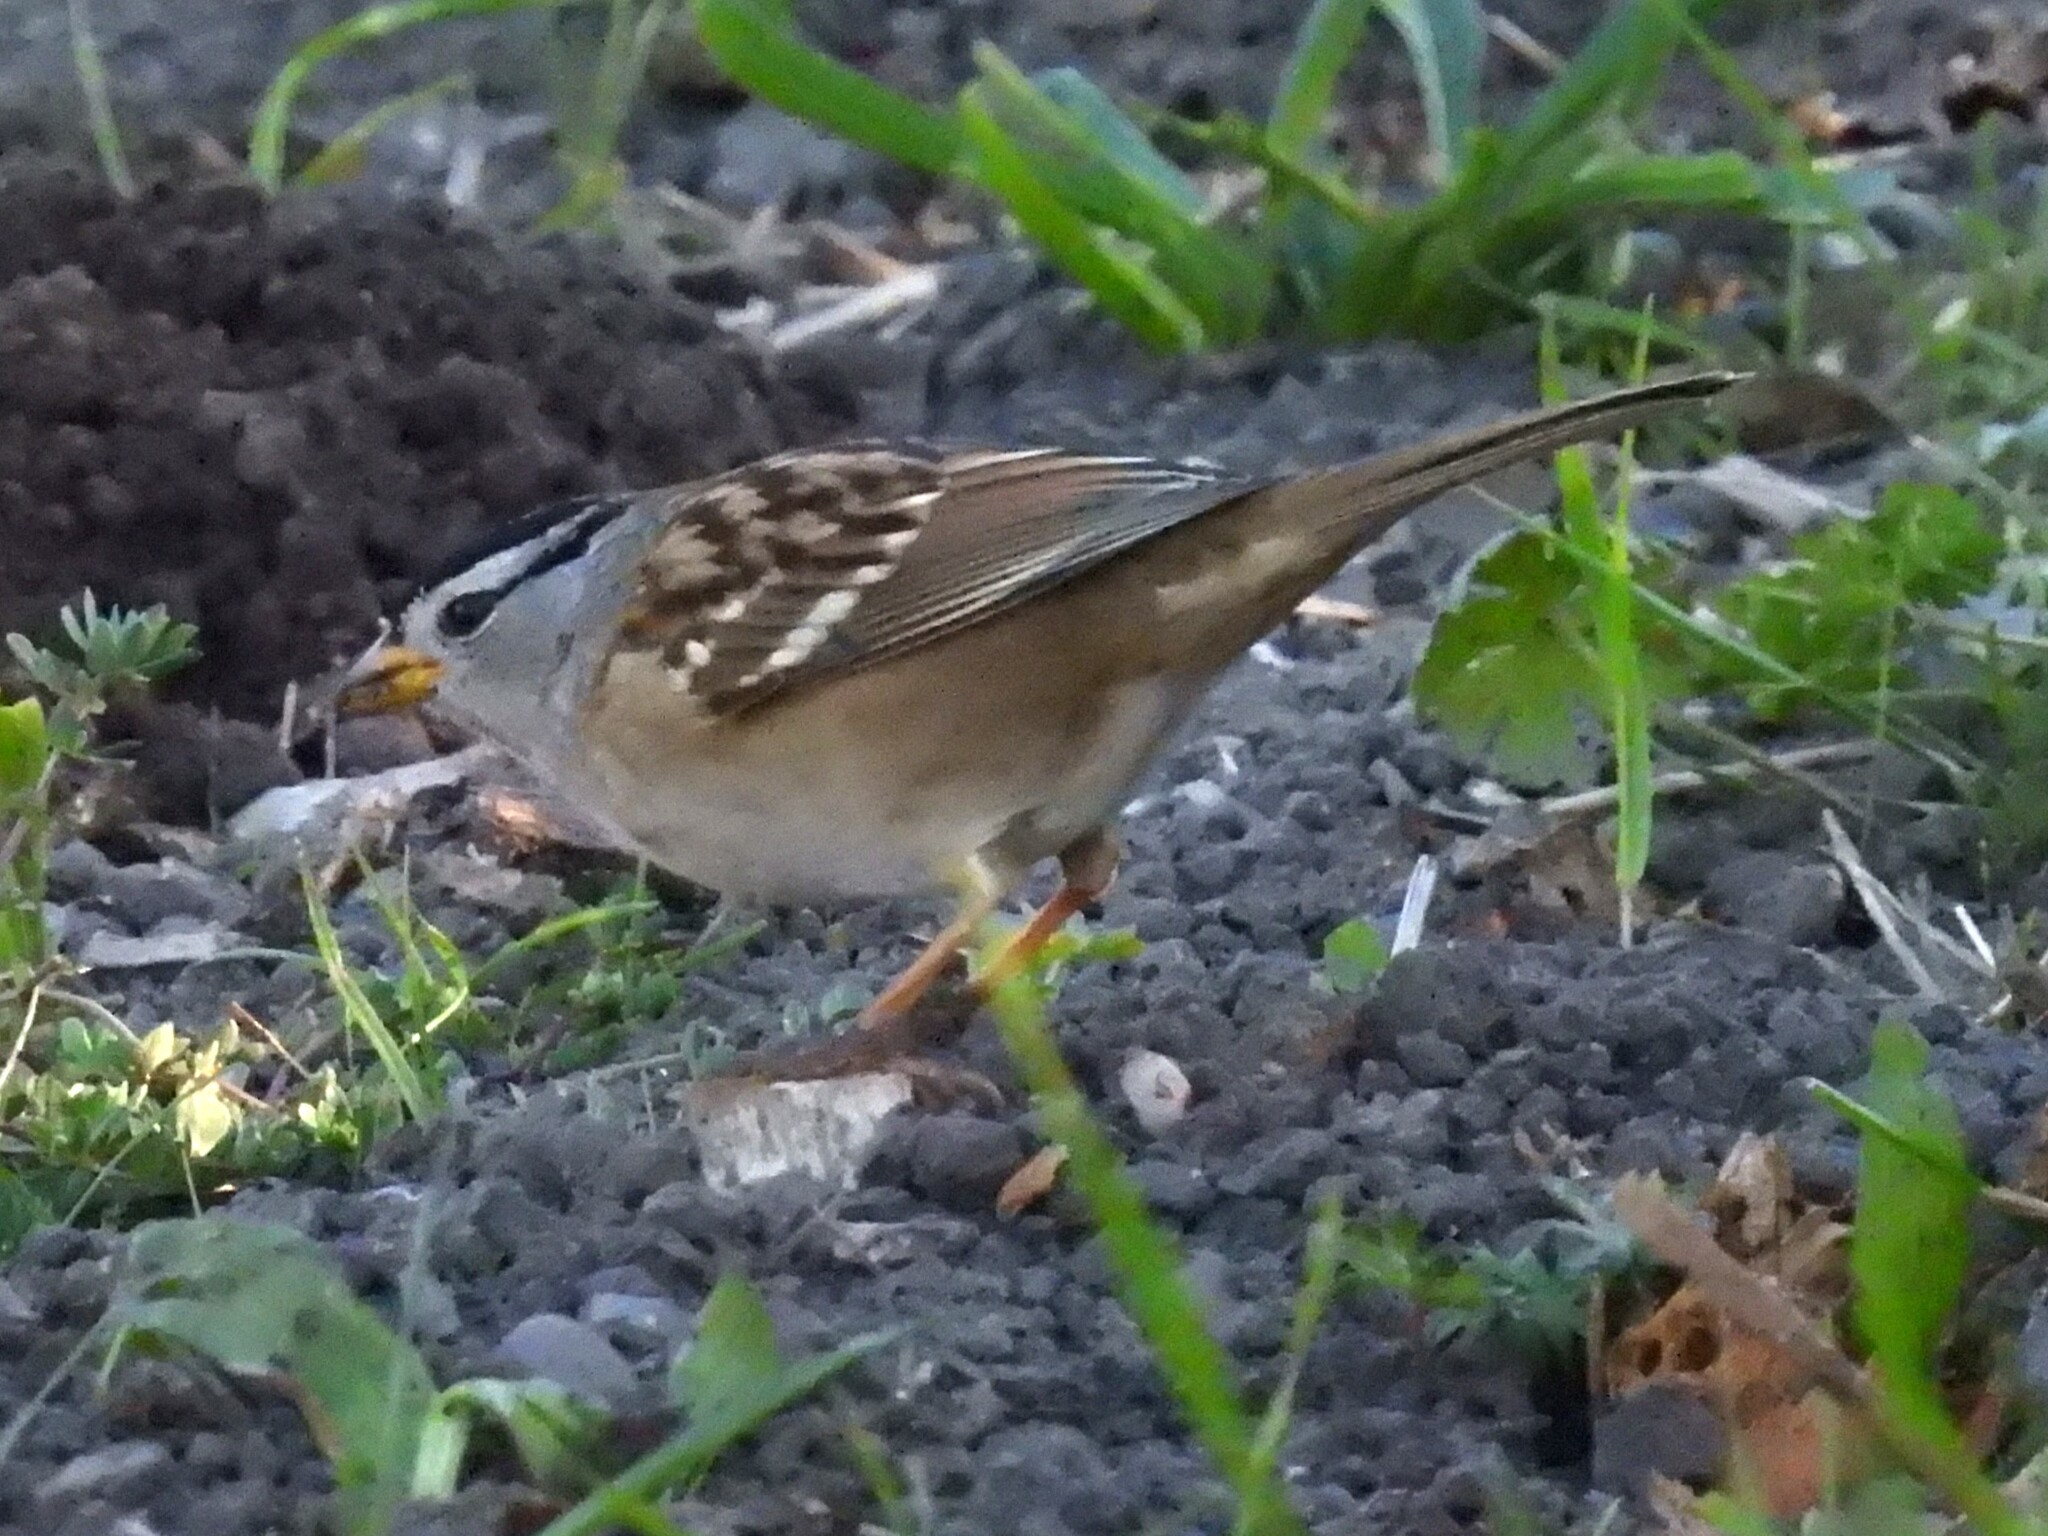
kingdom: Animalia
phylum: Chordata
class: Aves
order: Passeriformes
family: Passerellidae
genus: Zonotrichia
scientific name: Zonotrichia leucophrys
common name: White-crowned sparrow
